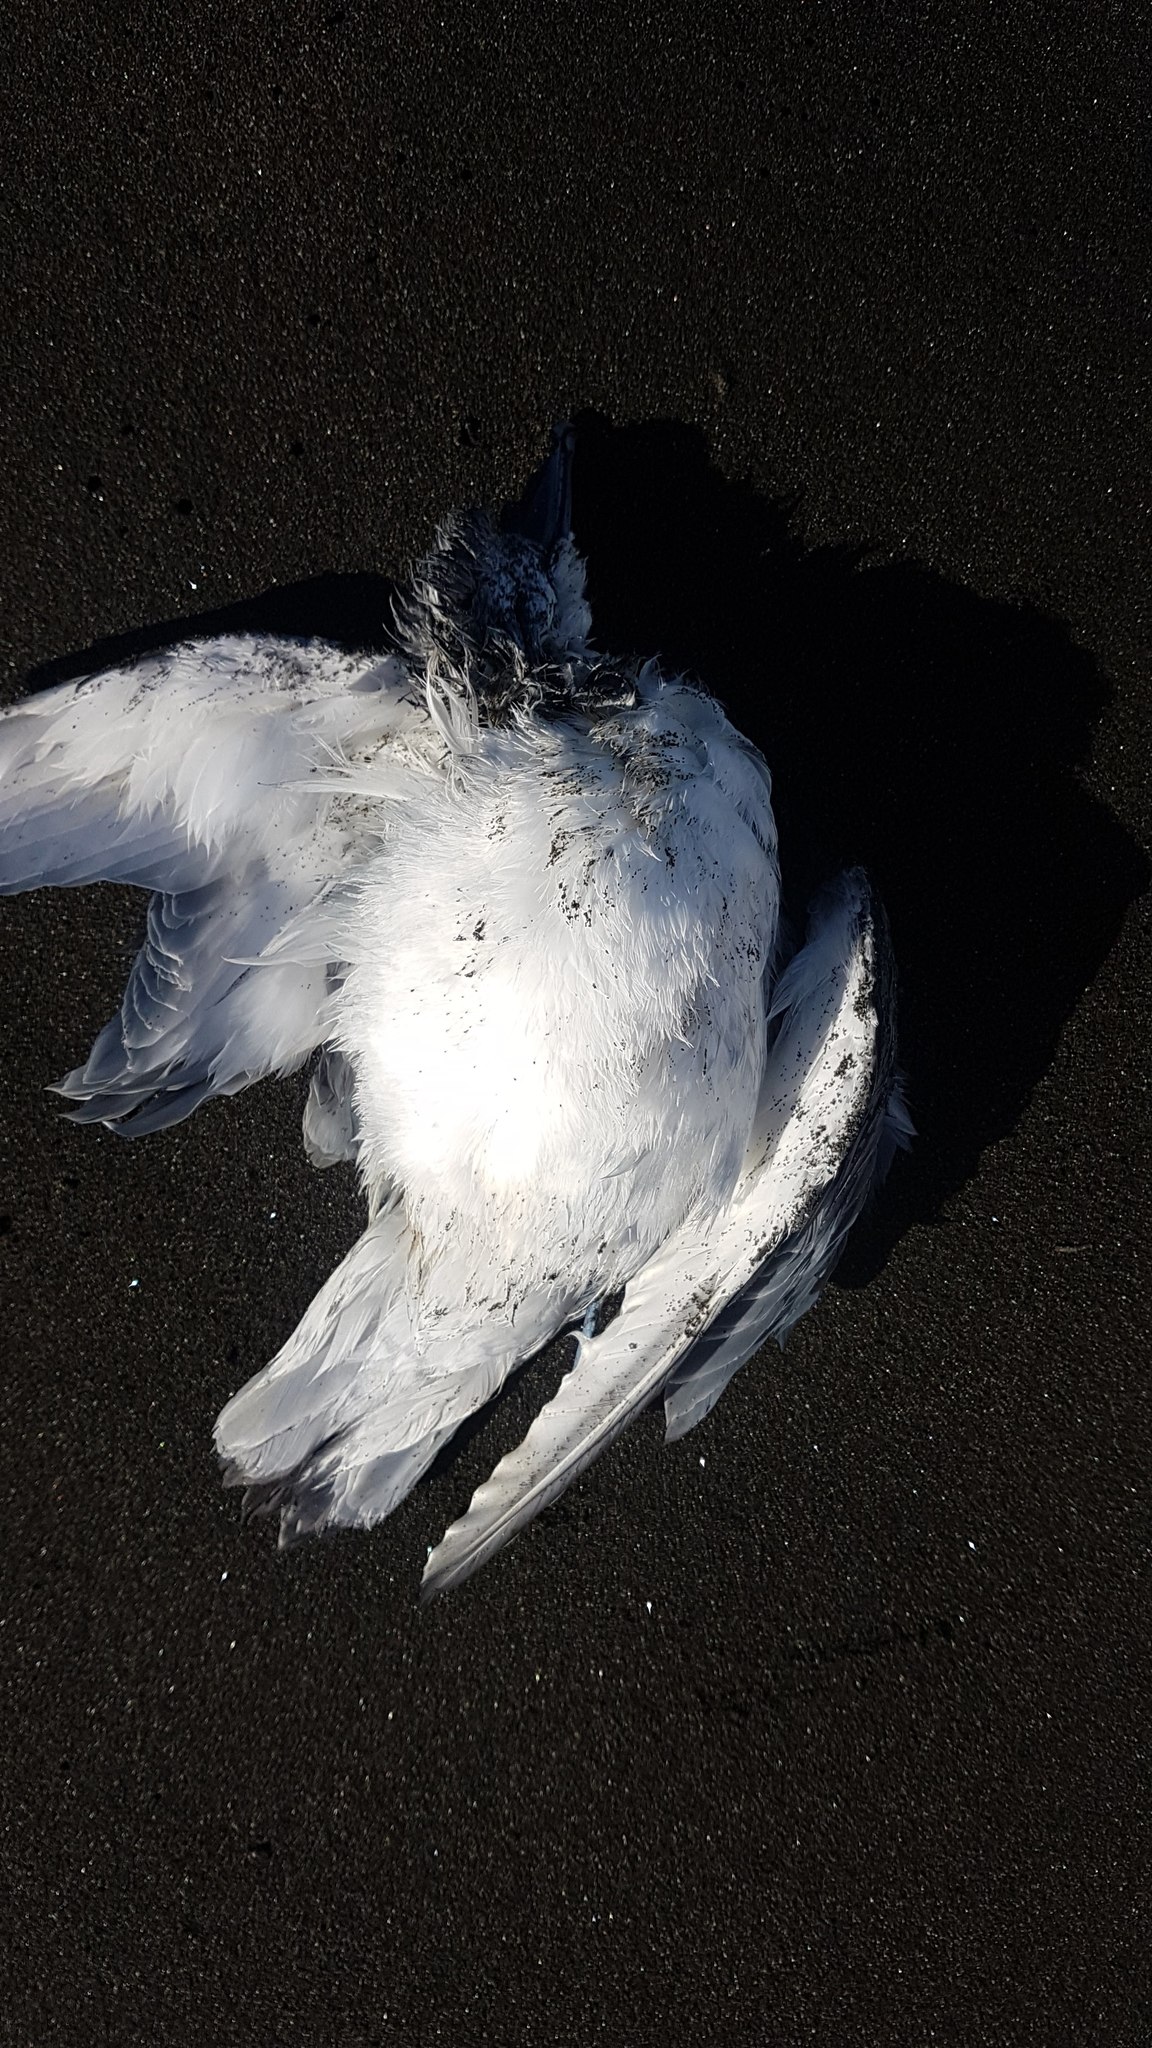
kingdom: Animalia
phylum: Chordata
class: Aves
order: Procellariiformes
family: Procellariidae
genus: Pachyptila
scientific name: Pachyptila desolata
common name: Antarctic prion
